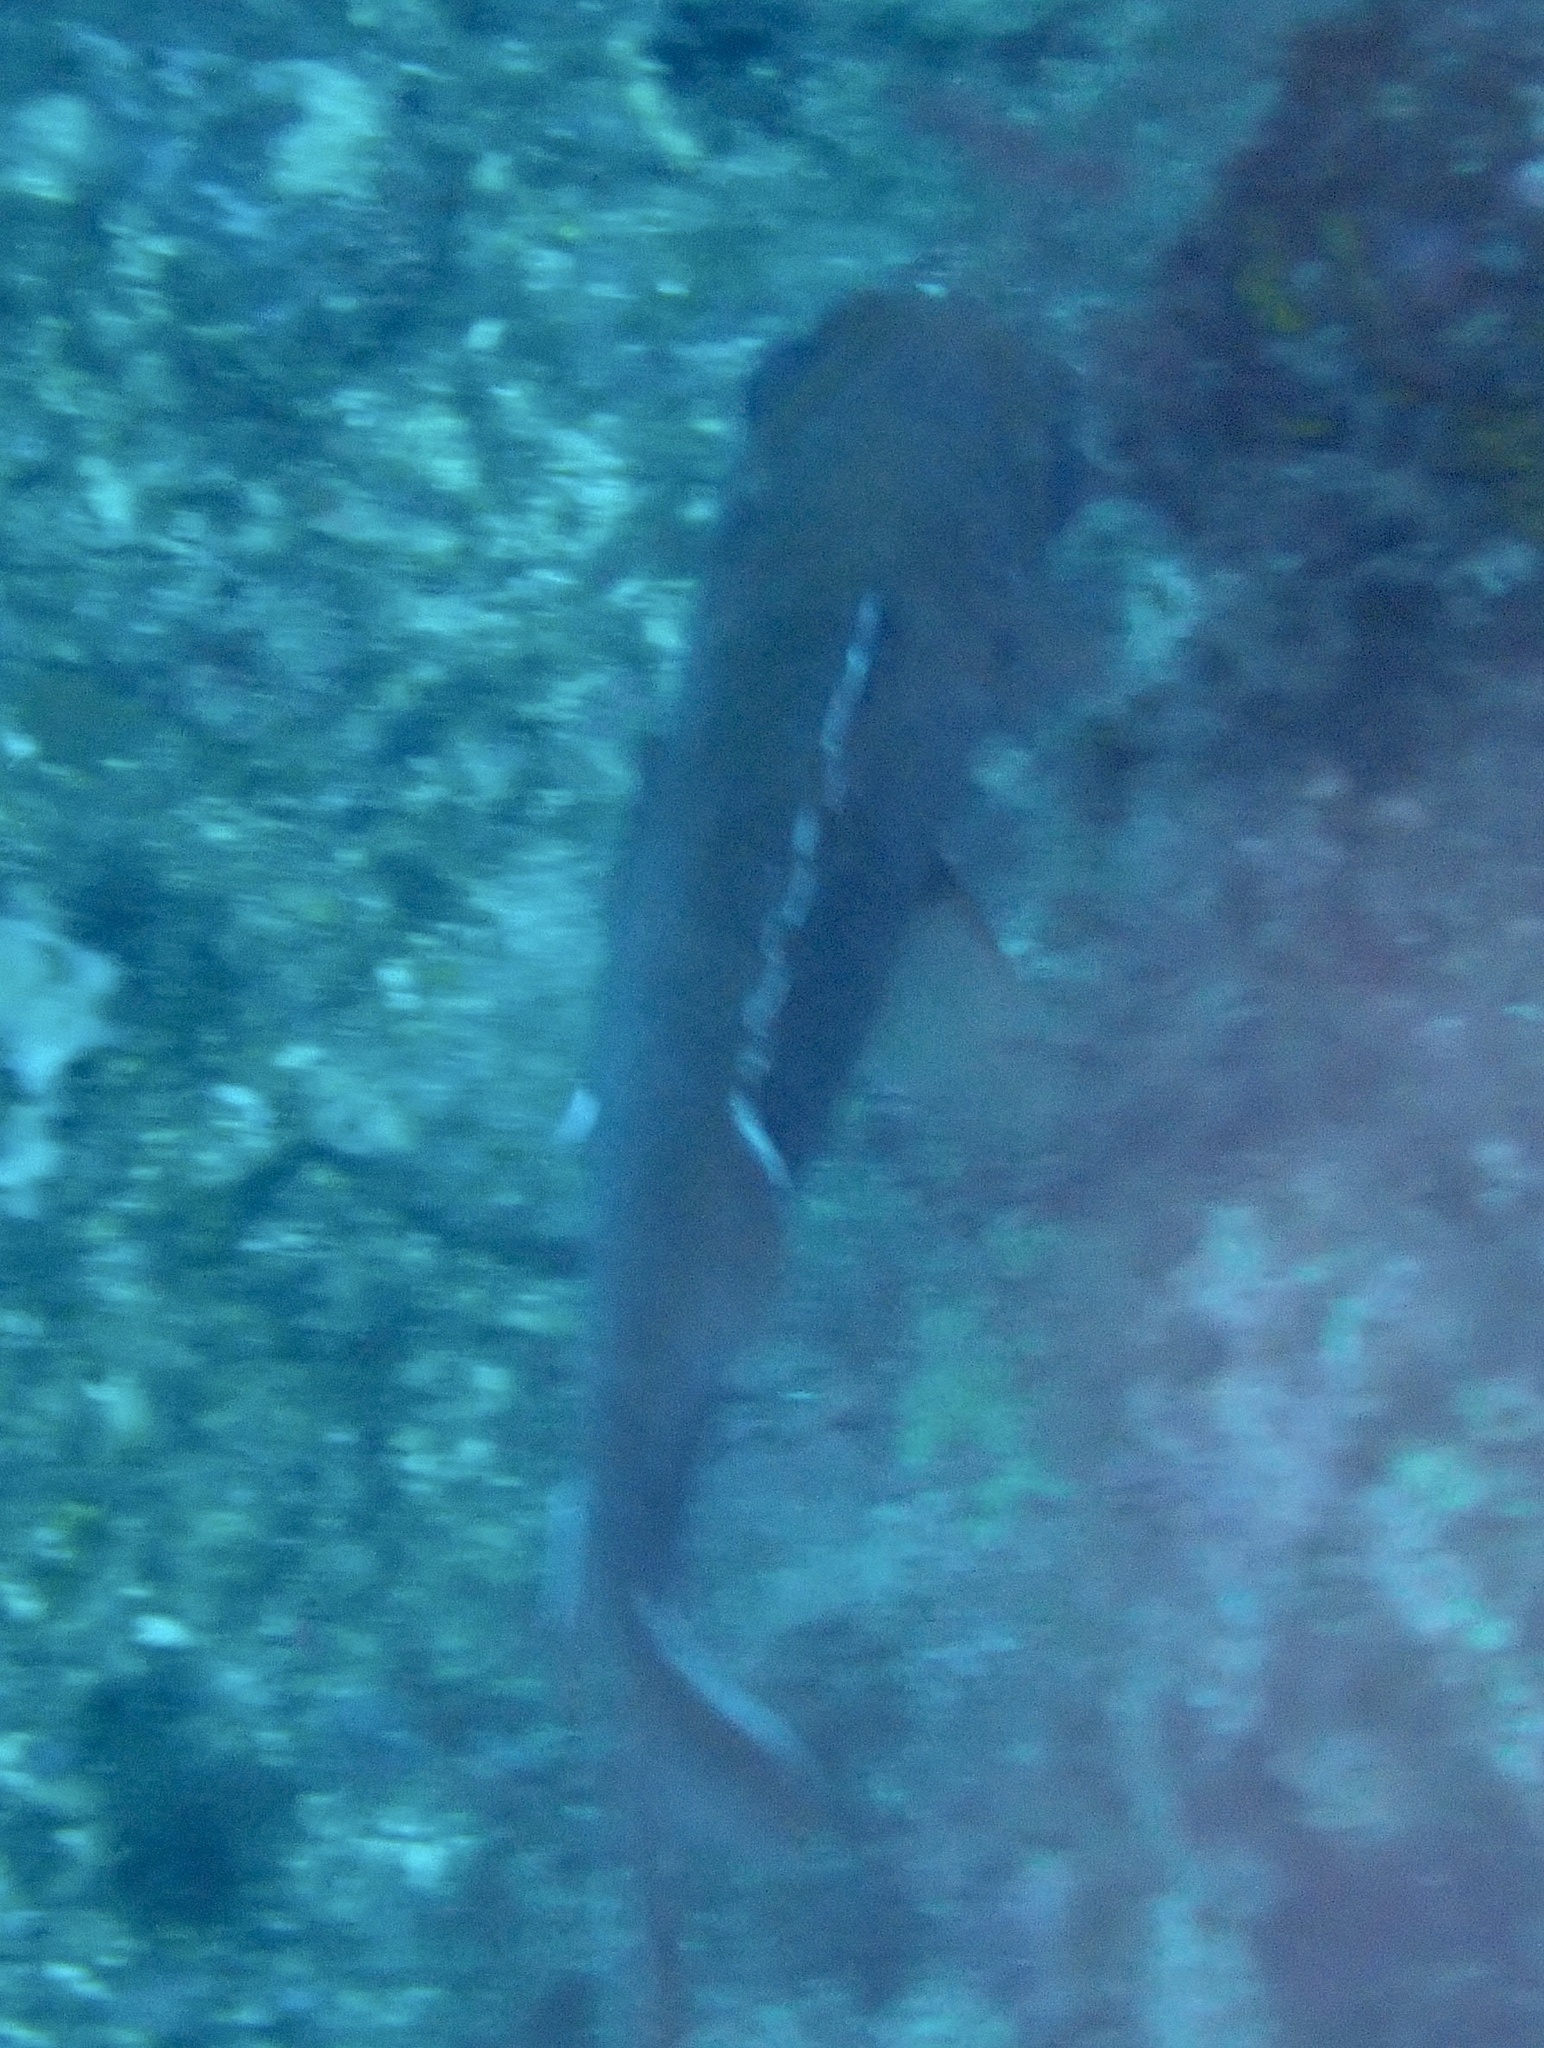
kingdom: Animalia
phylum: Chordata
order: Beryciformes
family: Holocentridae
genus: Myripristis
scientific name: Myripristis jacobus
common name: Blackbar soldierfish
